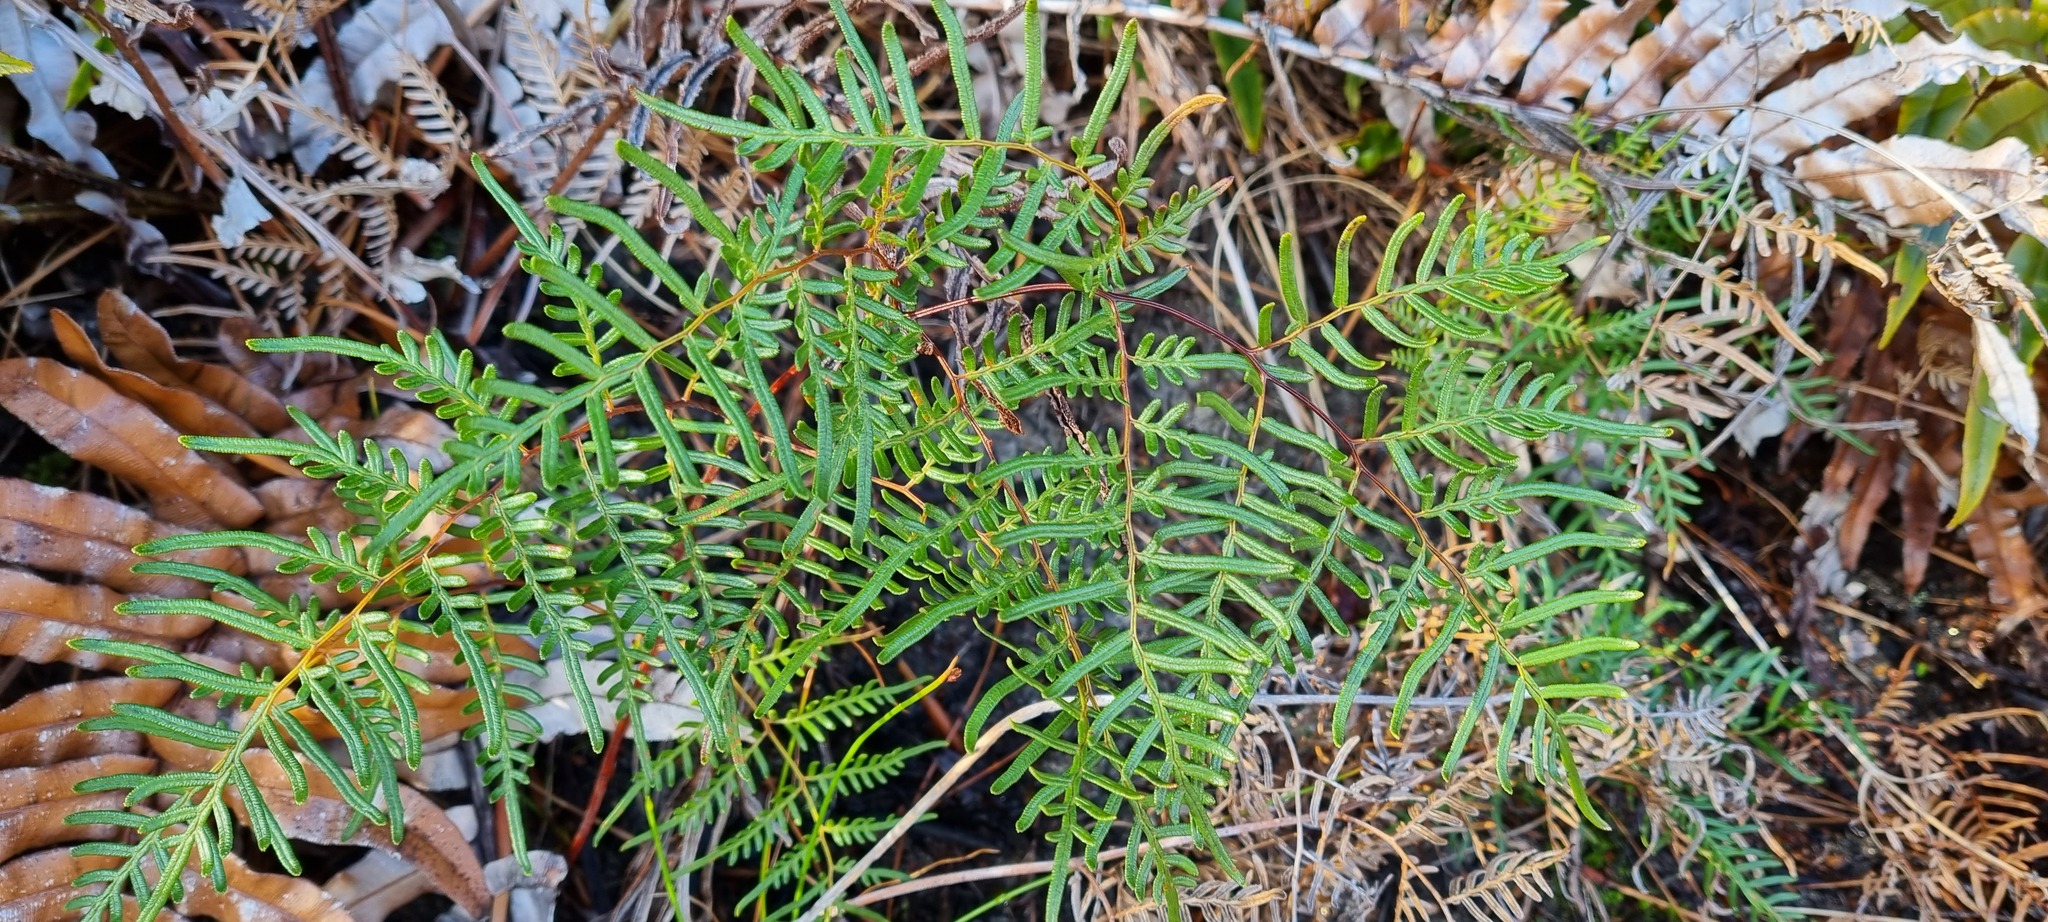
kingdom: Plantae
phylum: Tracheophyta
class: Polypodiopsida
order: Polypodiales
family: Dennstaedtiaceae
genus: Pteridium
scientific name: Pteridium esculentum
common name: Bracken fern
